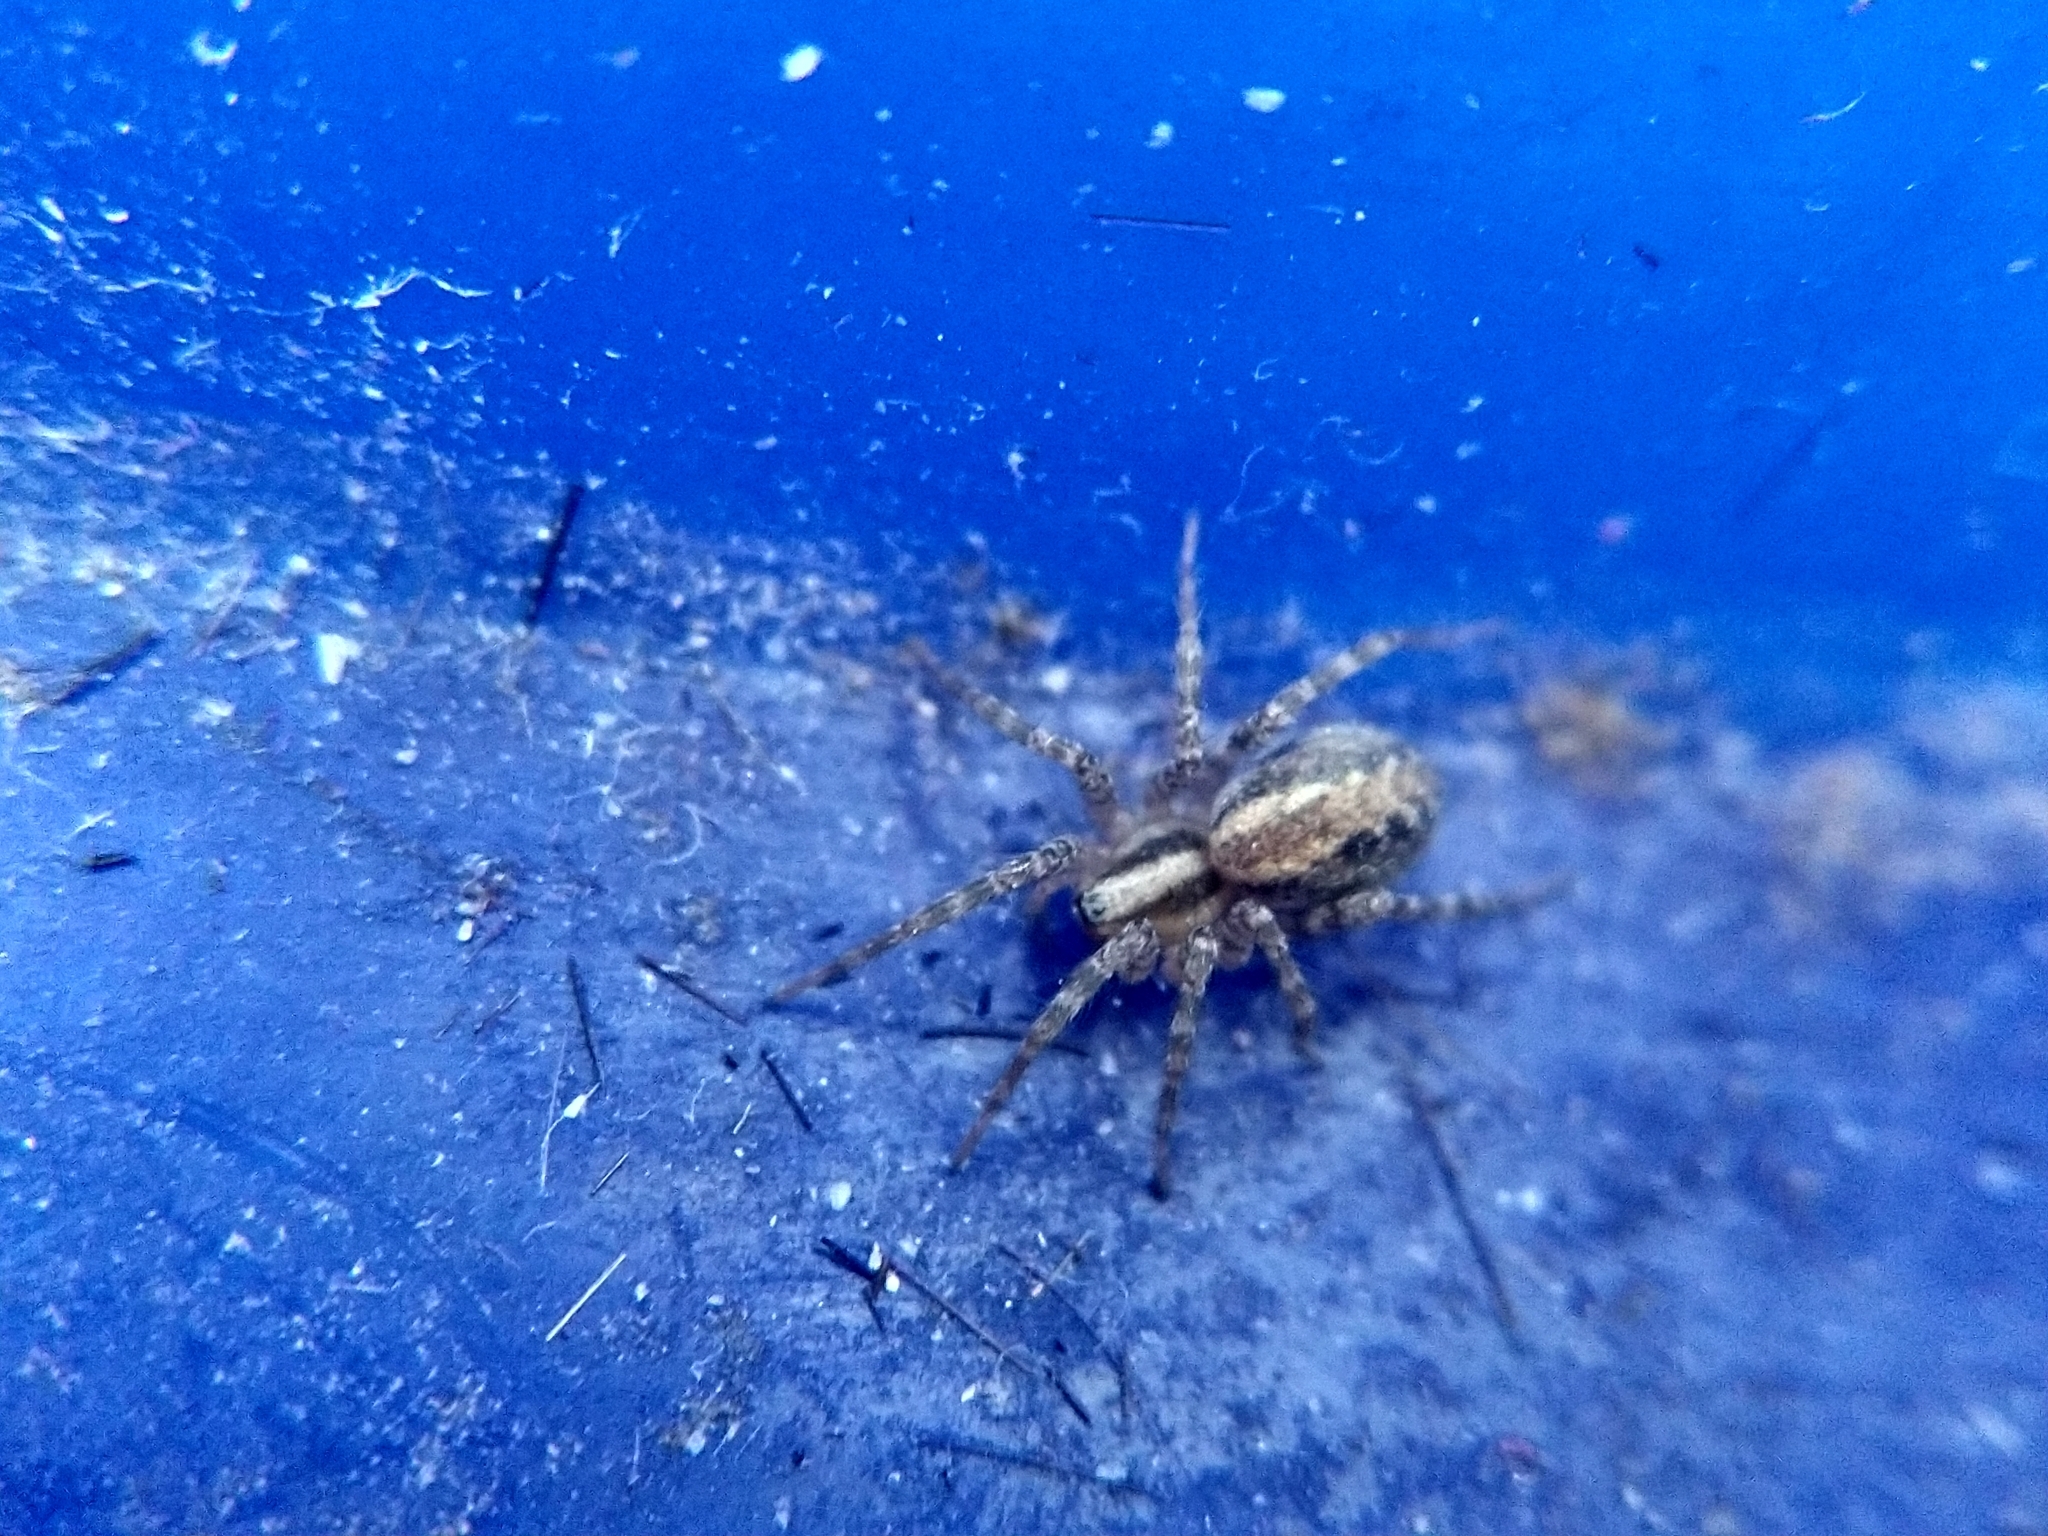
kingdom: Animalia
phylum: Arthropoda
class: Arachnida
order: Araneae
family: Agelenidae
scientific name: Agelenidae
